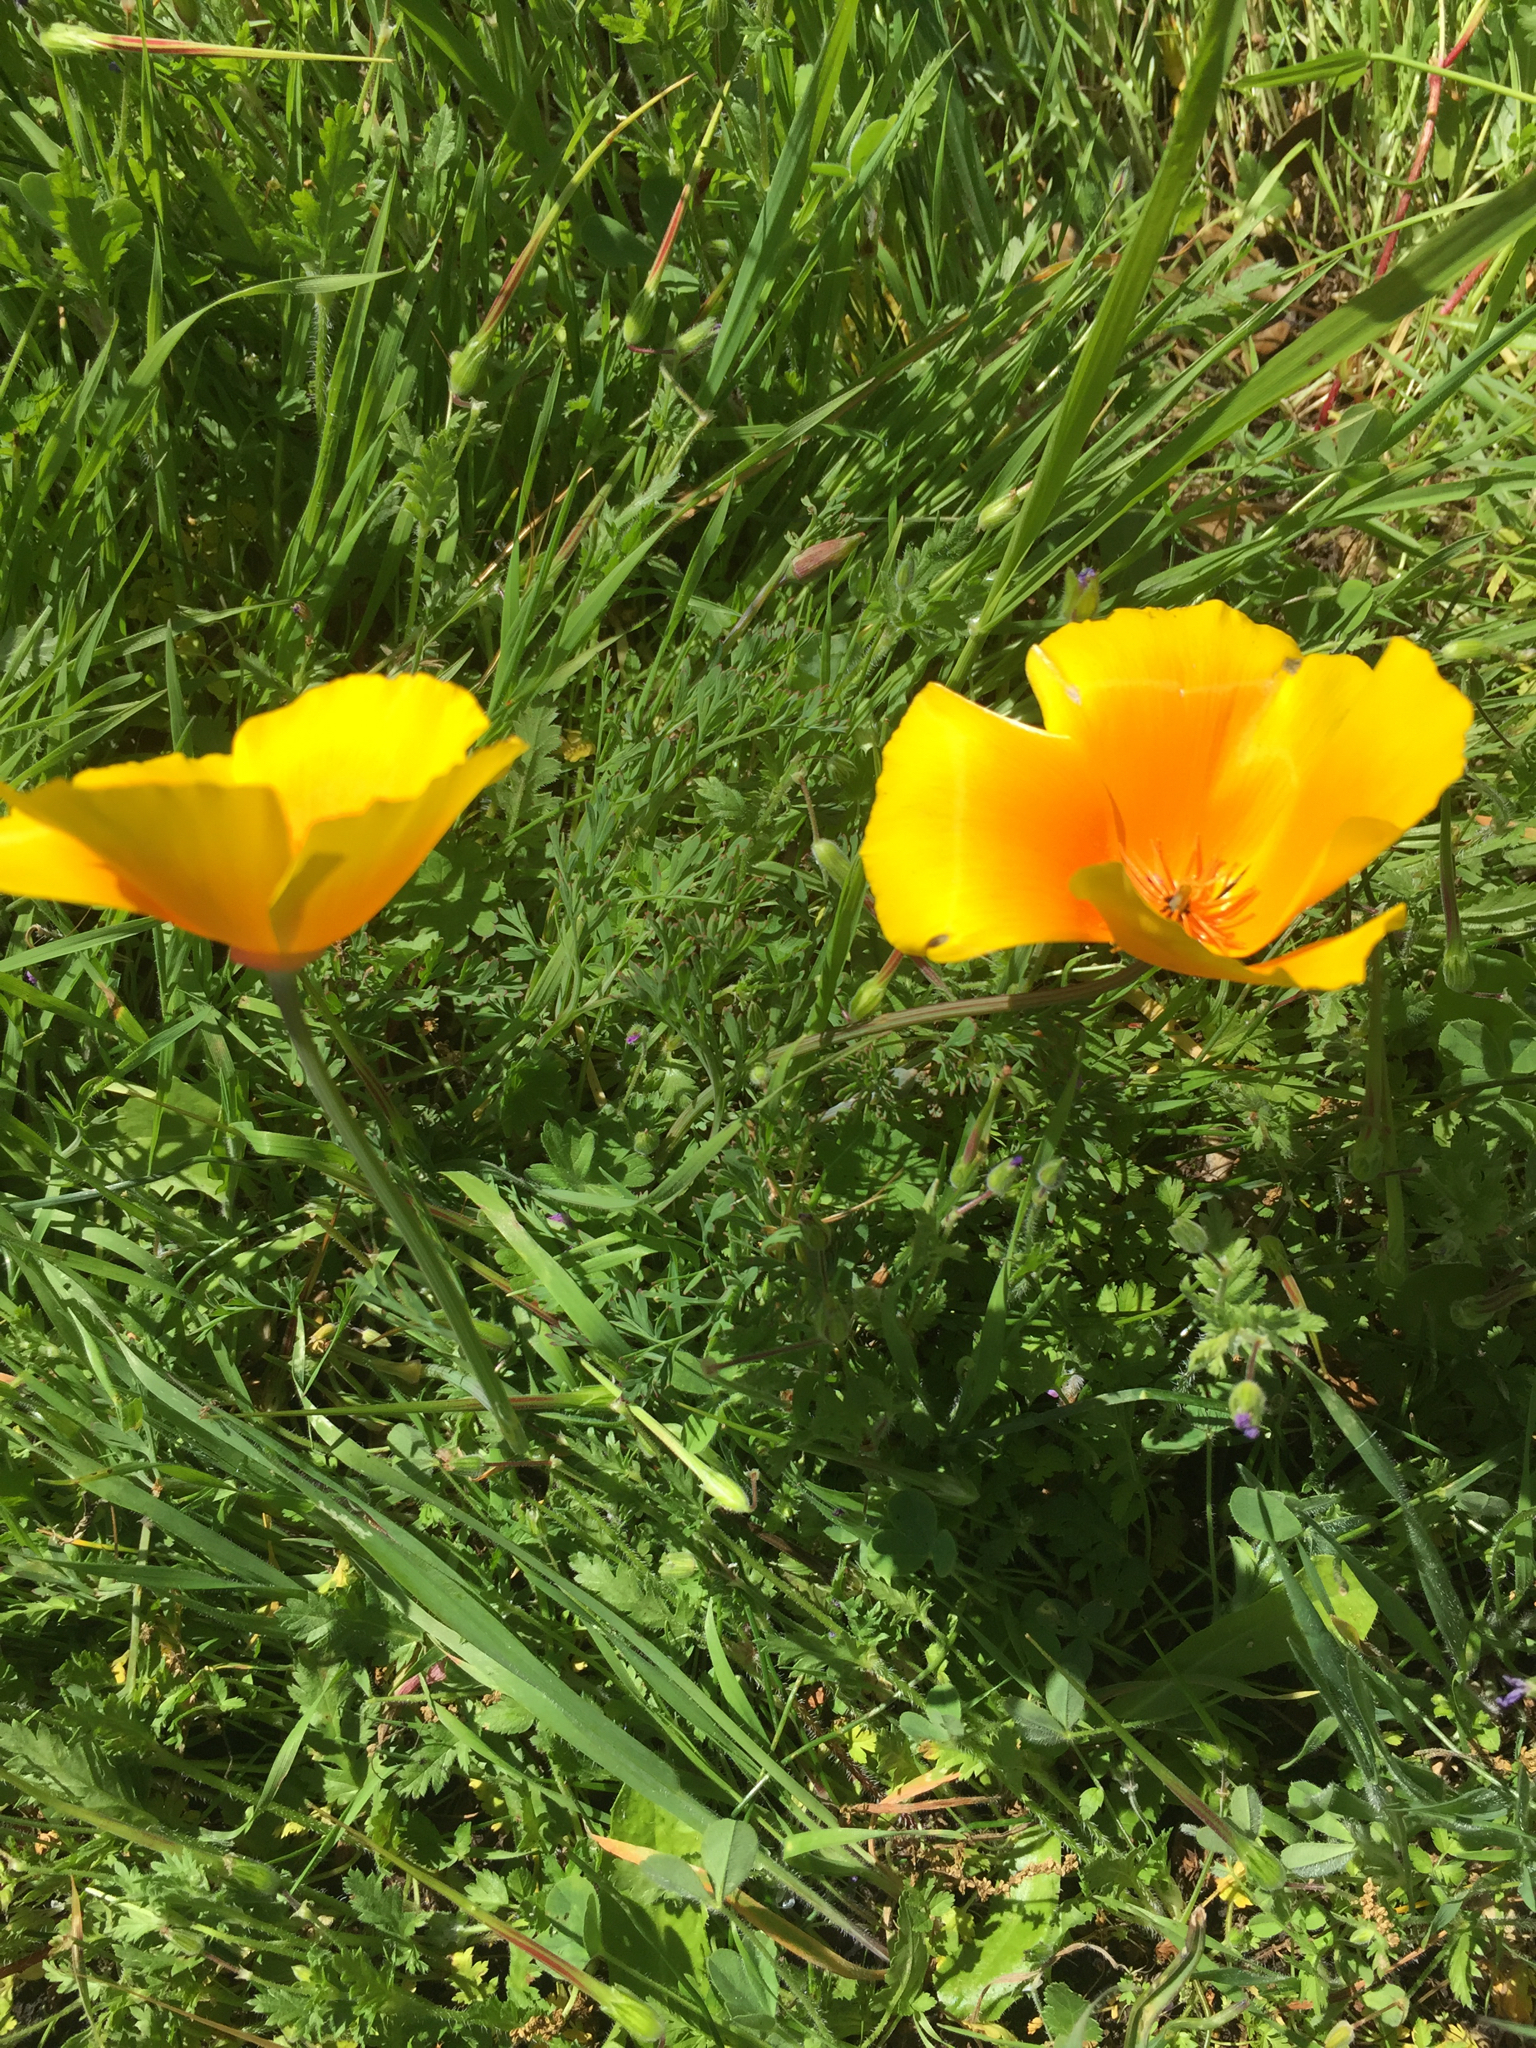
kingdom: Plantae
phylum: Tracheophyta
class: Magnoliopsida
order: Ranunculales
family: Papaveraceae
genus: Eschscholzia
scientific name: Eschscholzia californica
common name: California poppy
